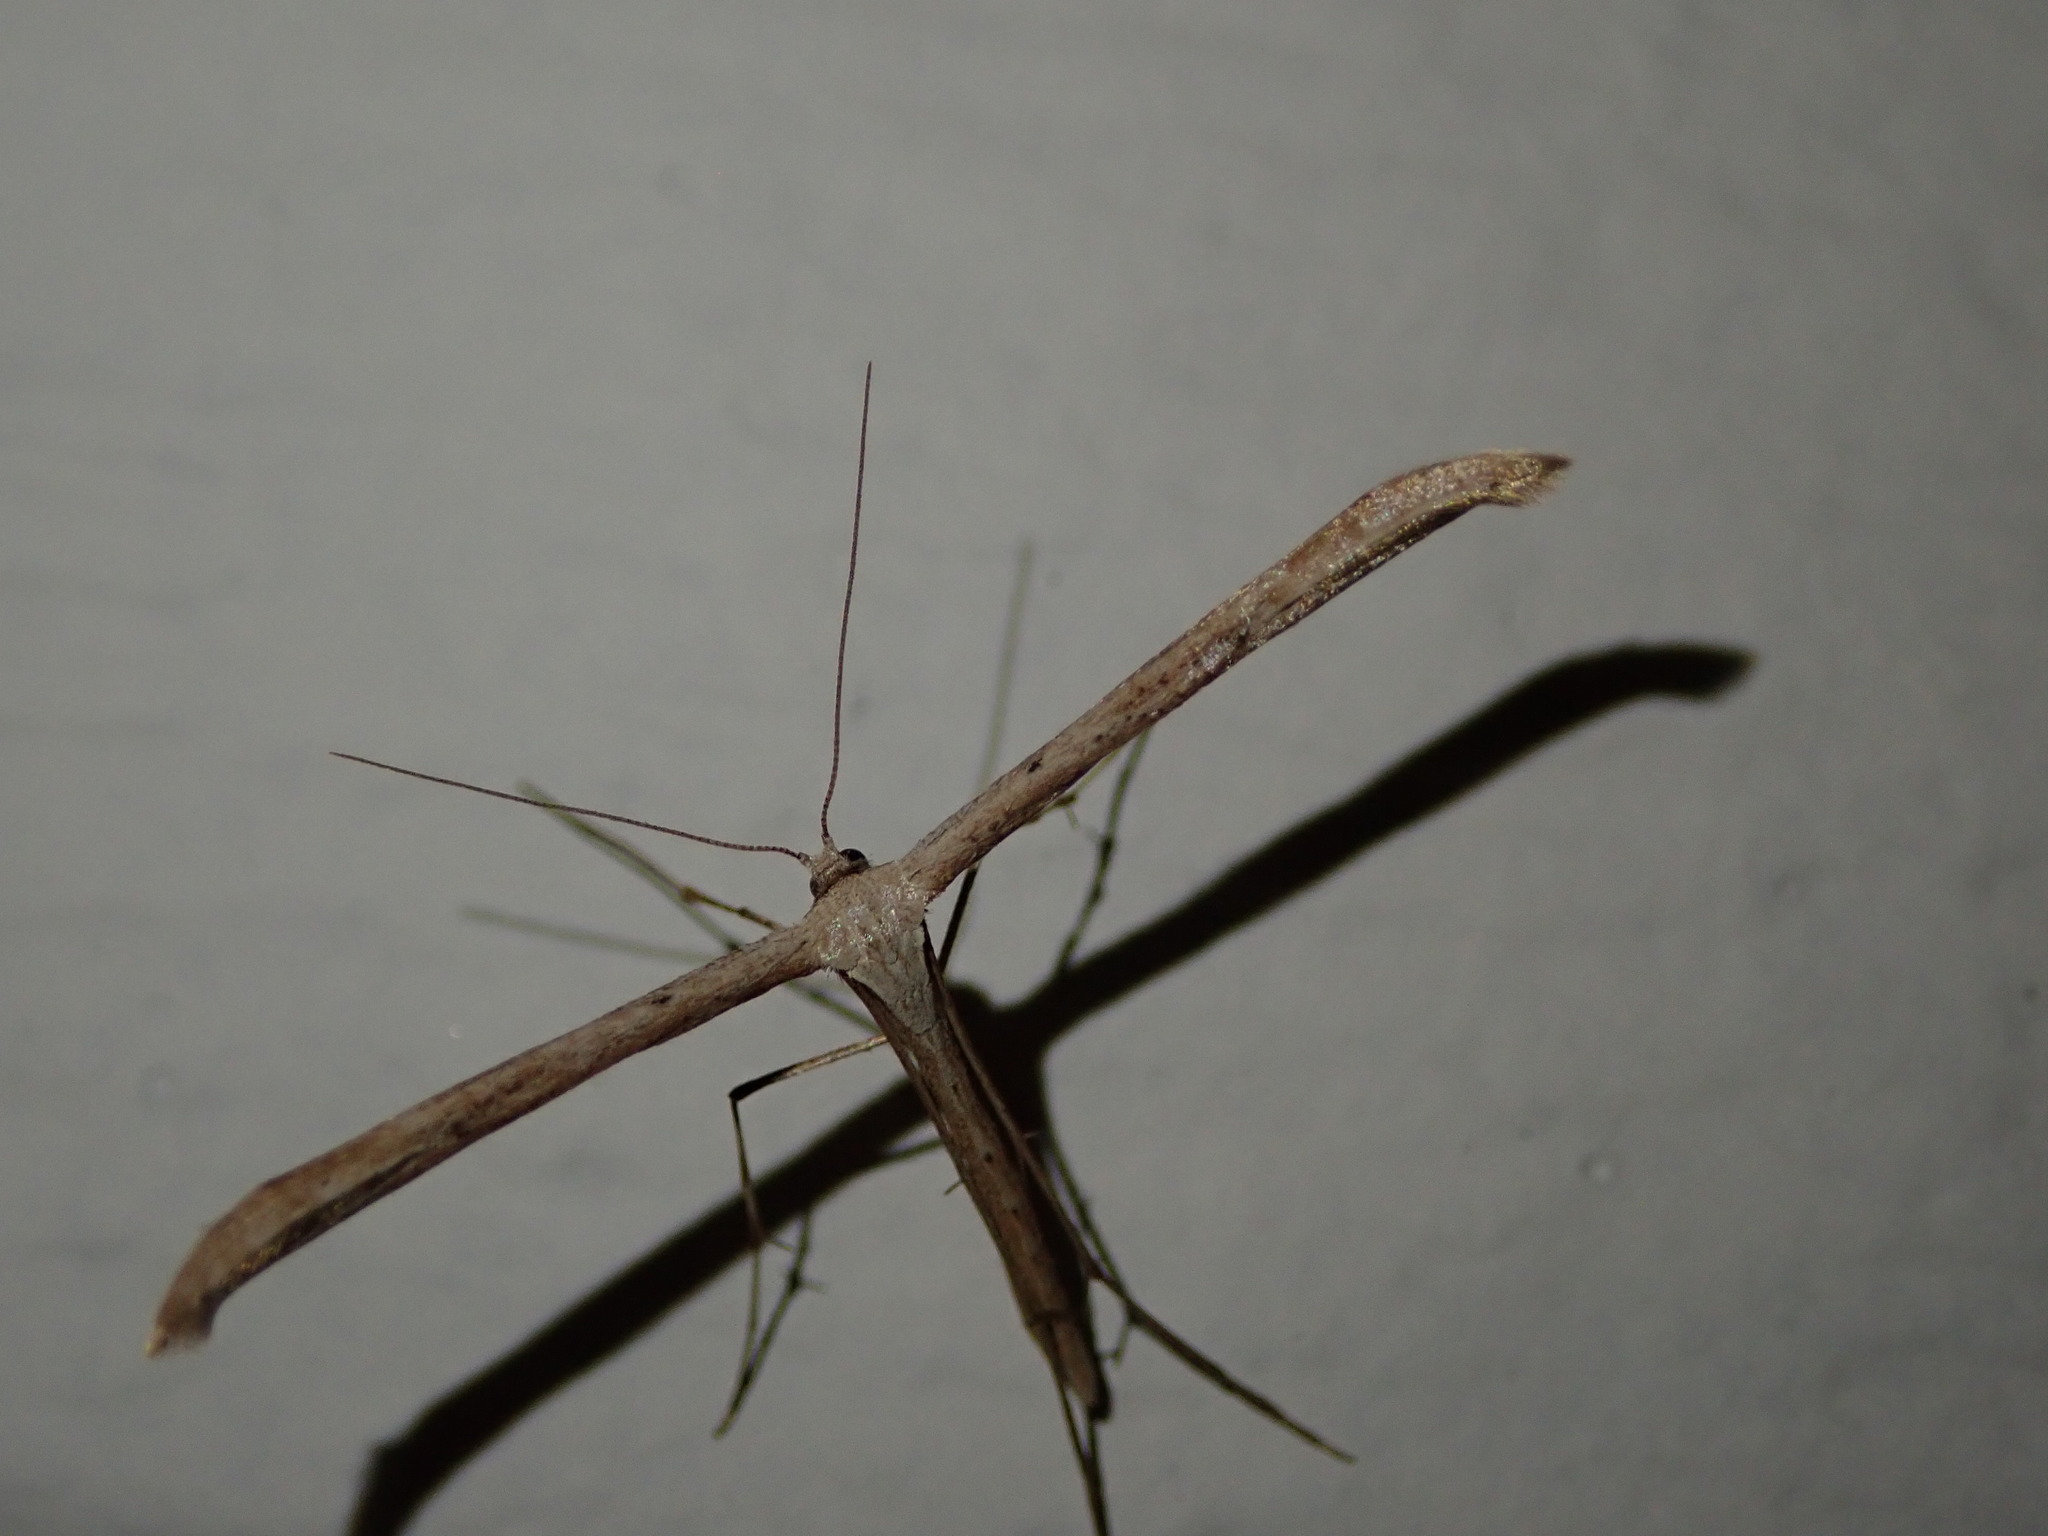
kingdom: Animalia
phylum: Arthropoda
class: Insecta
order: Lepidoptera
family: Pterophoridae
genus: Emmelina
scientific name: Emmelina monodactyla
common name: Common plume
